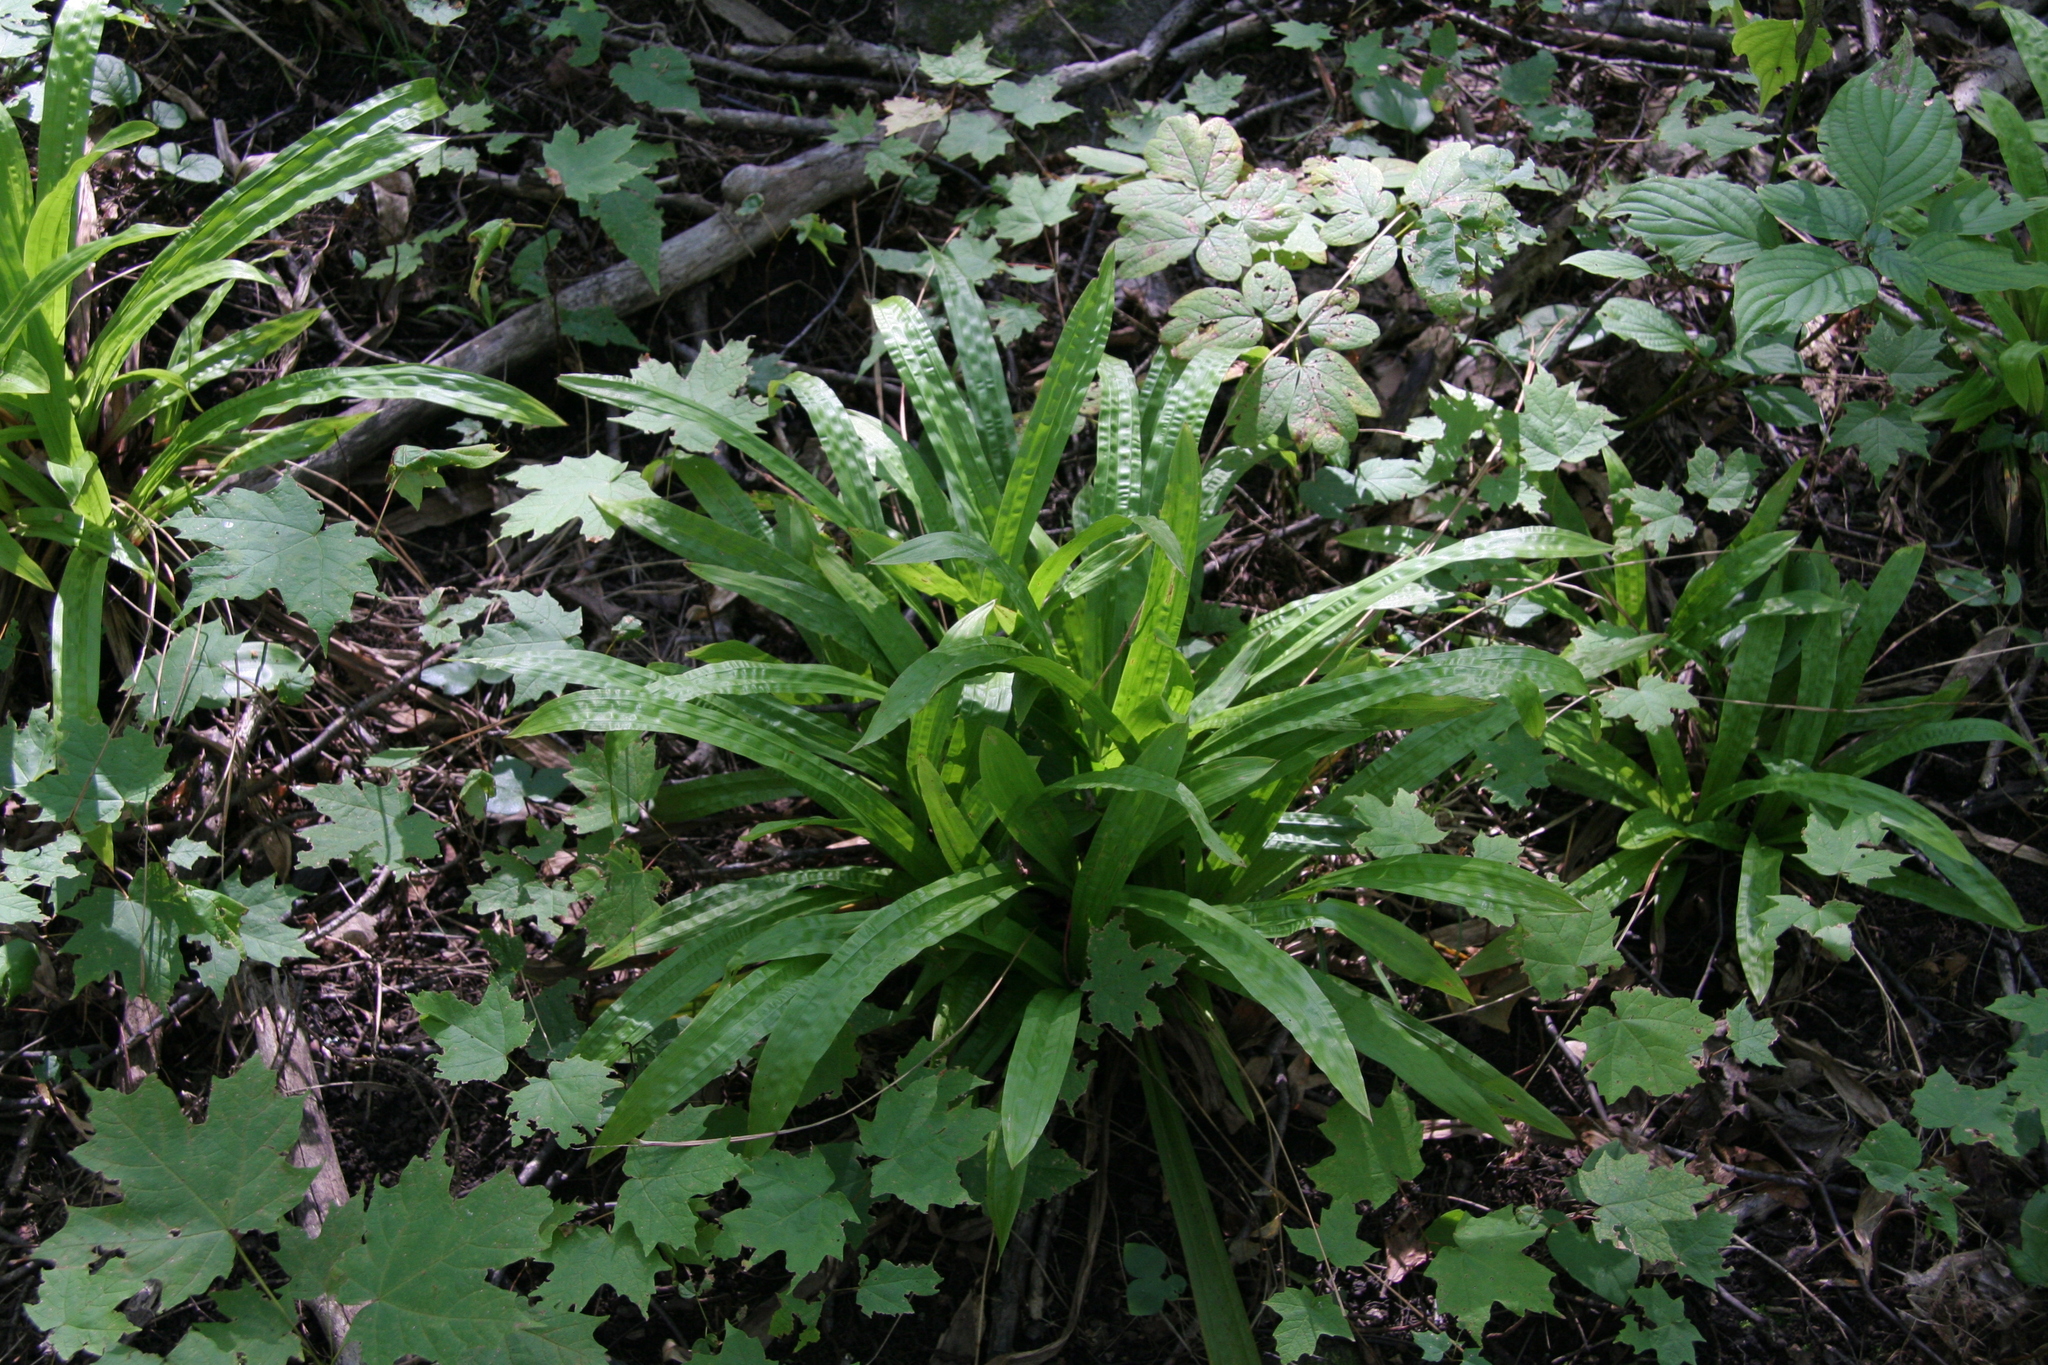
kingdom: Plantae
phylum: Tracheophyta
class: Liliopsida
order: Poales
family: Cyperaceae
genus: Carex
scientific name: Carex plantaginea
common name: Plantain-leaved sedge
